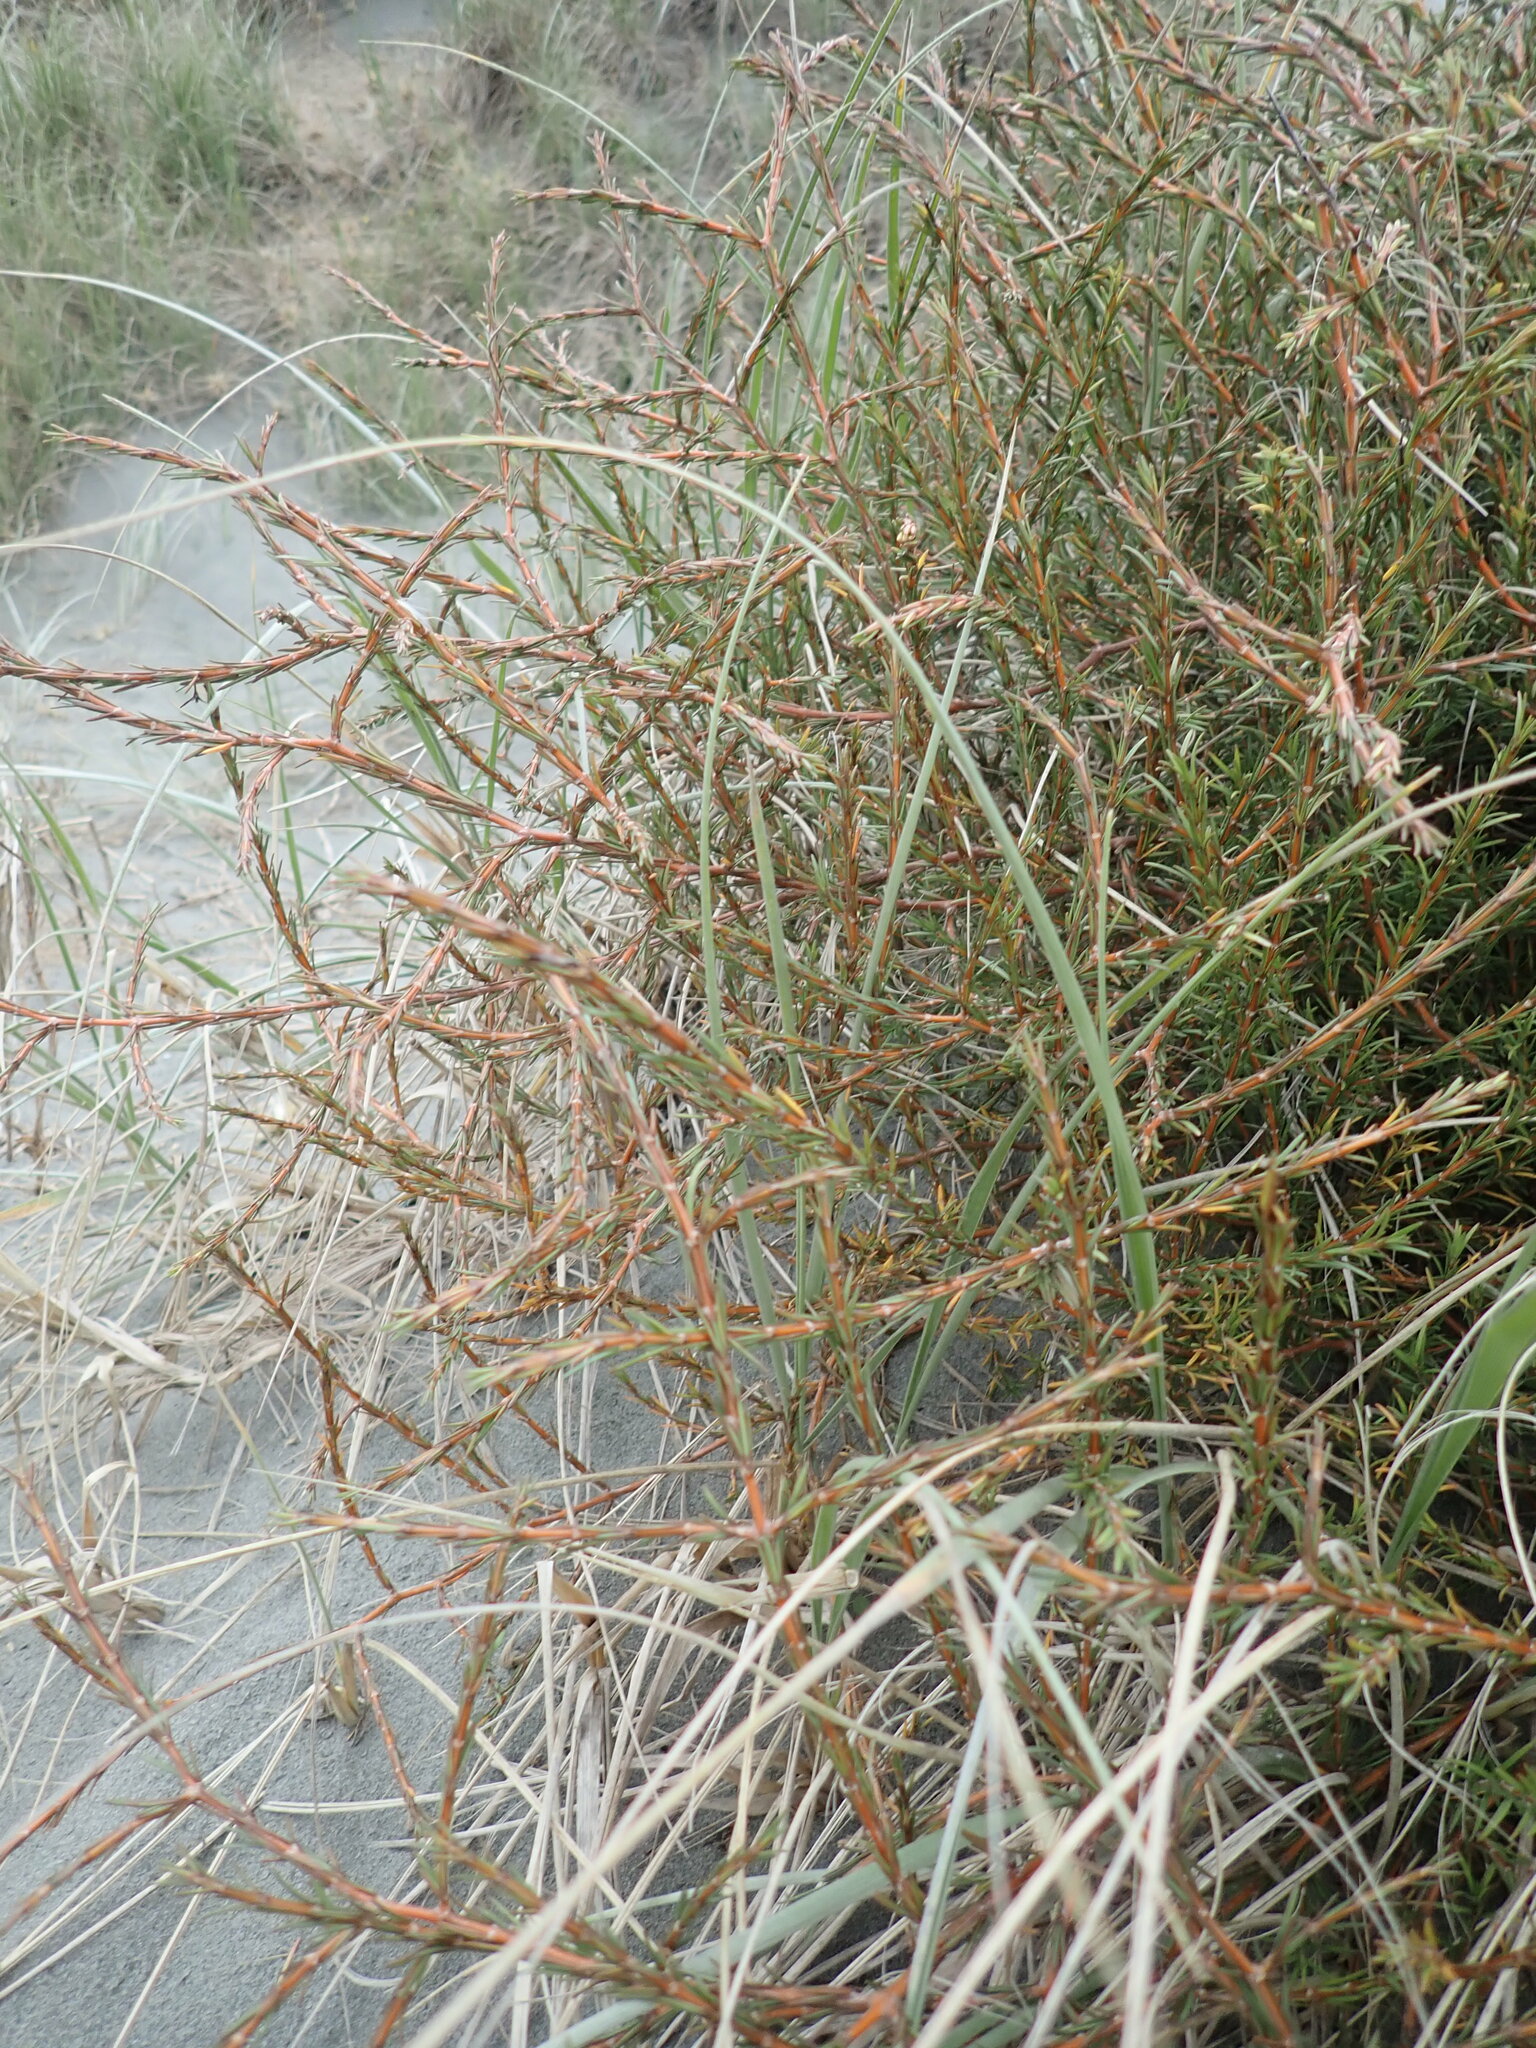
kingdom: Plantae
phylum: Tracheophyta
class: Magnoliopsida
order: Gentianales
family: Rubiaceae
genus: Coprosma
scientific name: Coprosma acerosa
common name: Sand coprosma
